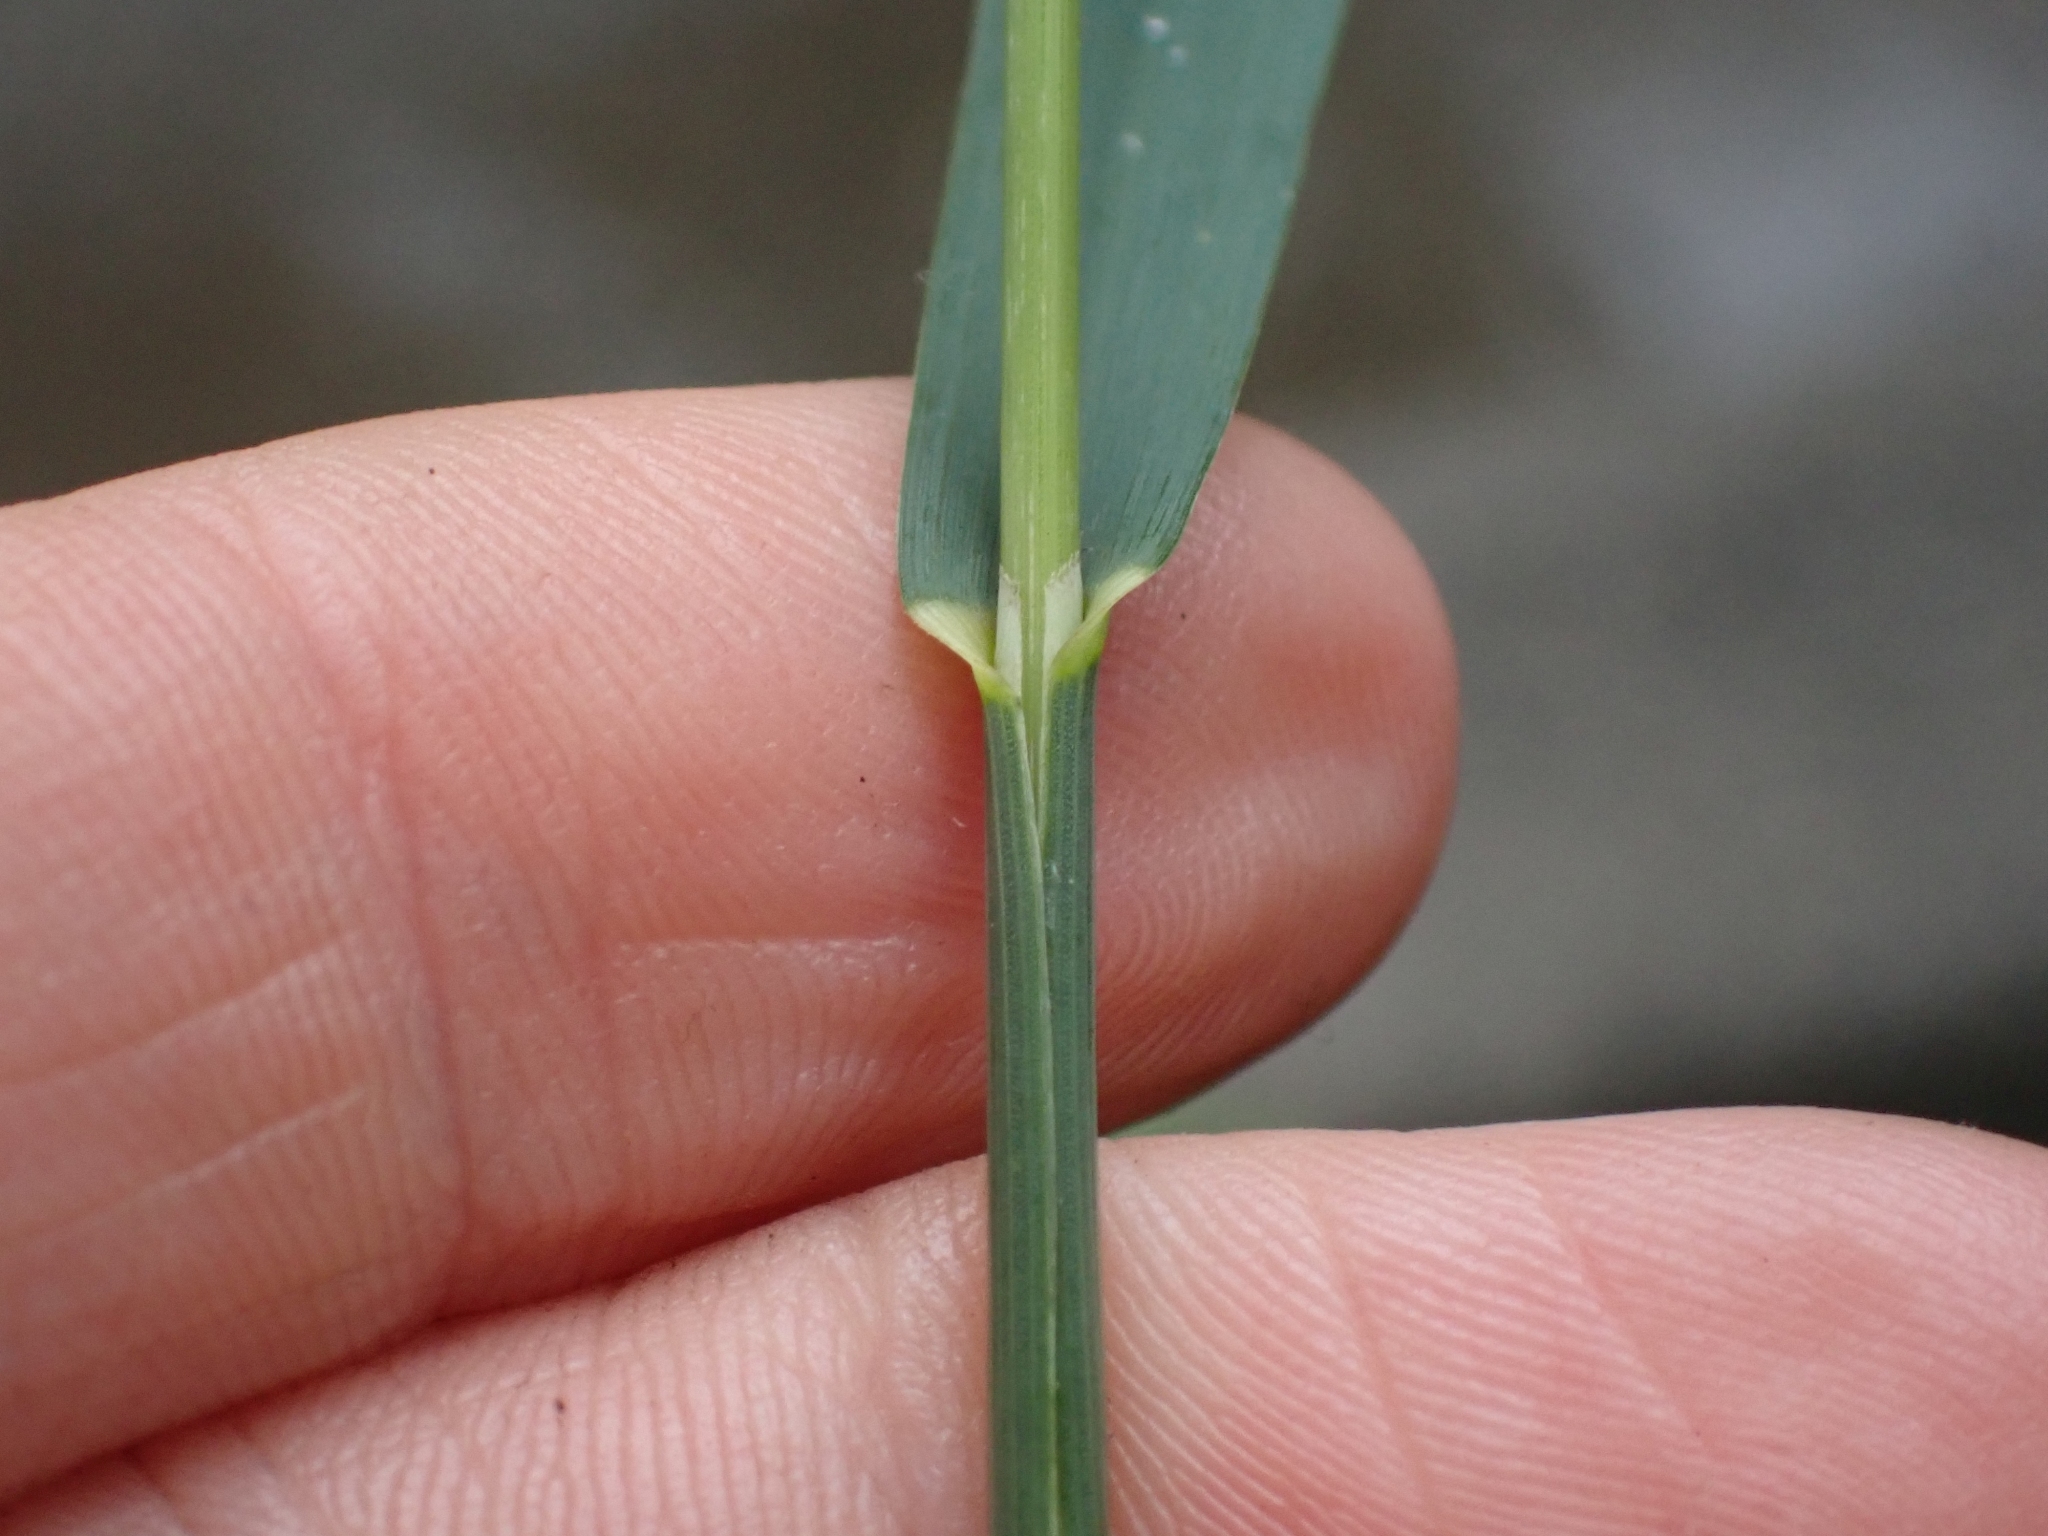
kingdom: Plantae
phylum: Tracheophyta
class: Liliopsida
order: Poales
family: Poaceae
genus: Bromus
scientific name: Bromus inermis
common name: Smooth brome
